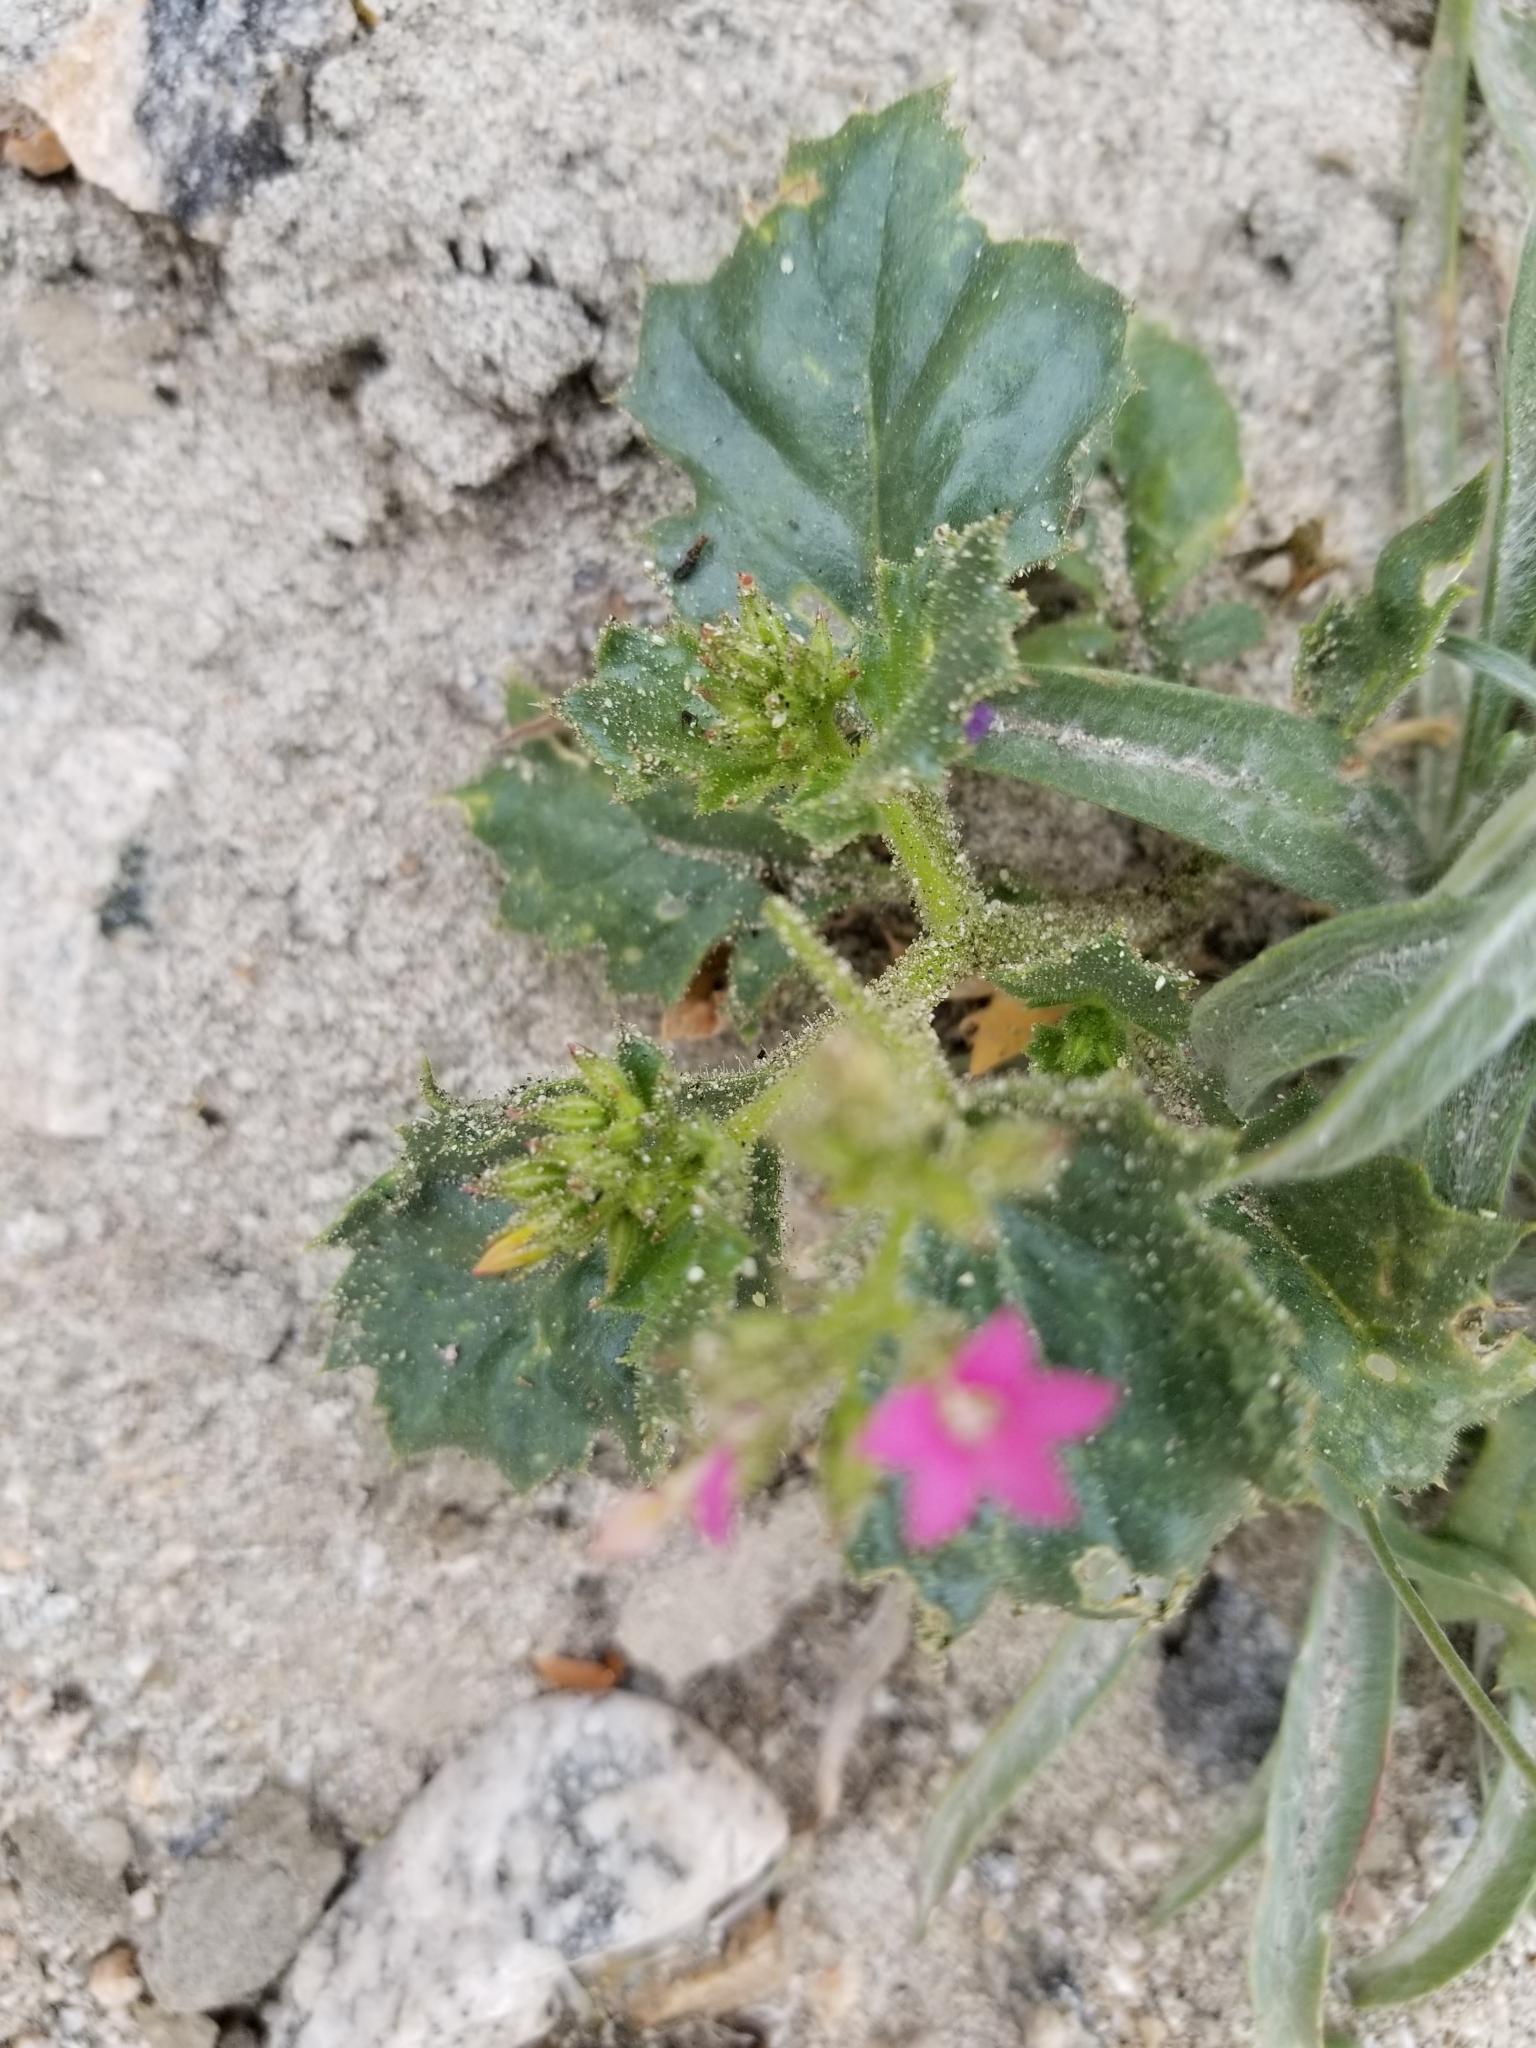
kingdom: Plantae
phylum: Tracheophyta
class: Magnoliopsida
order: Ericales
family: Polemoniaceae
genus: Aliciella
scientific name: Aliciella latifolia
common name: Broad-leaf gilia
